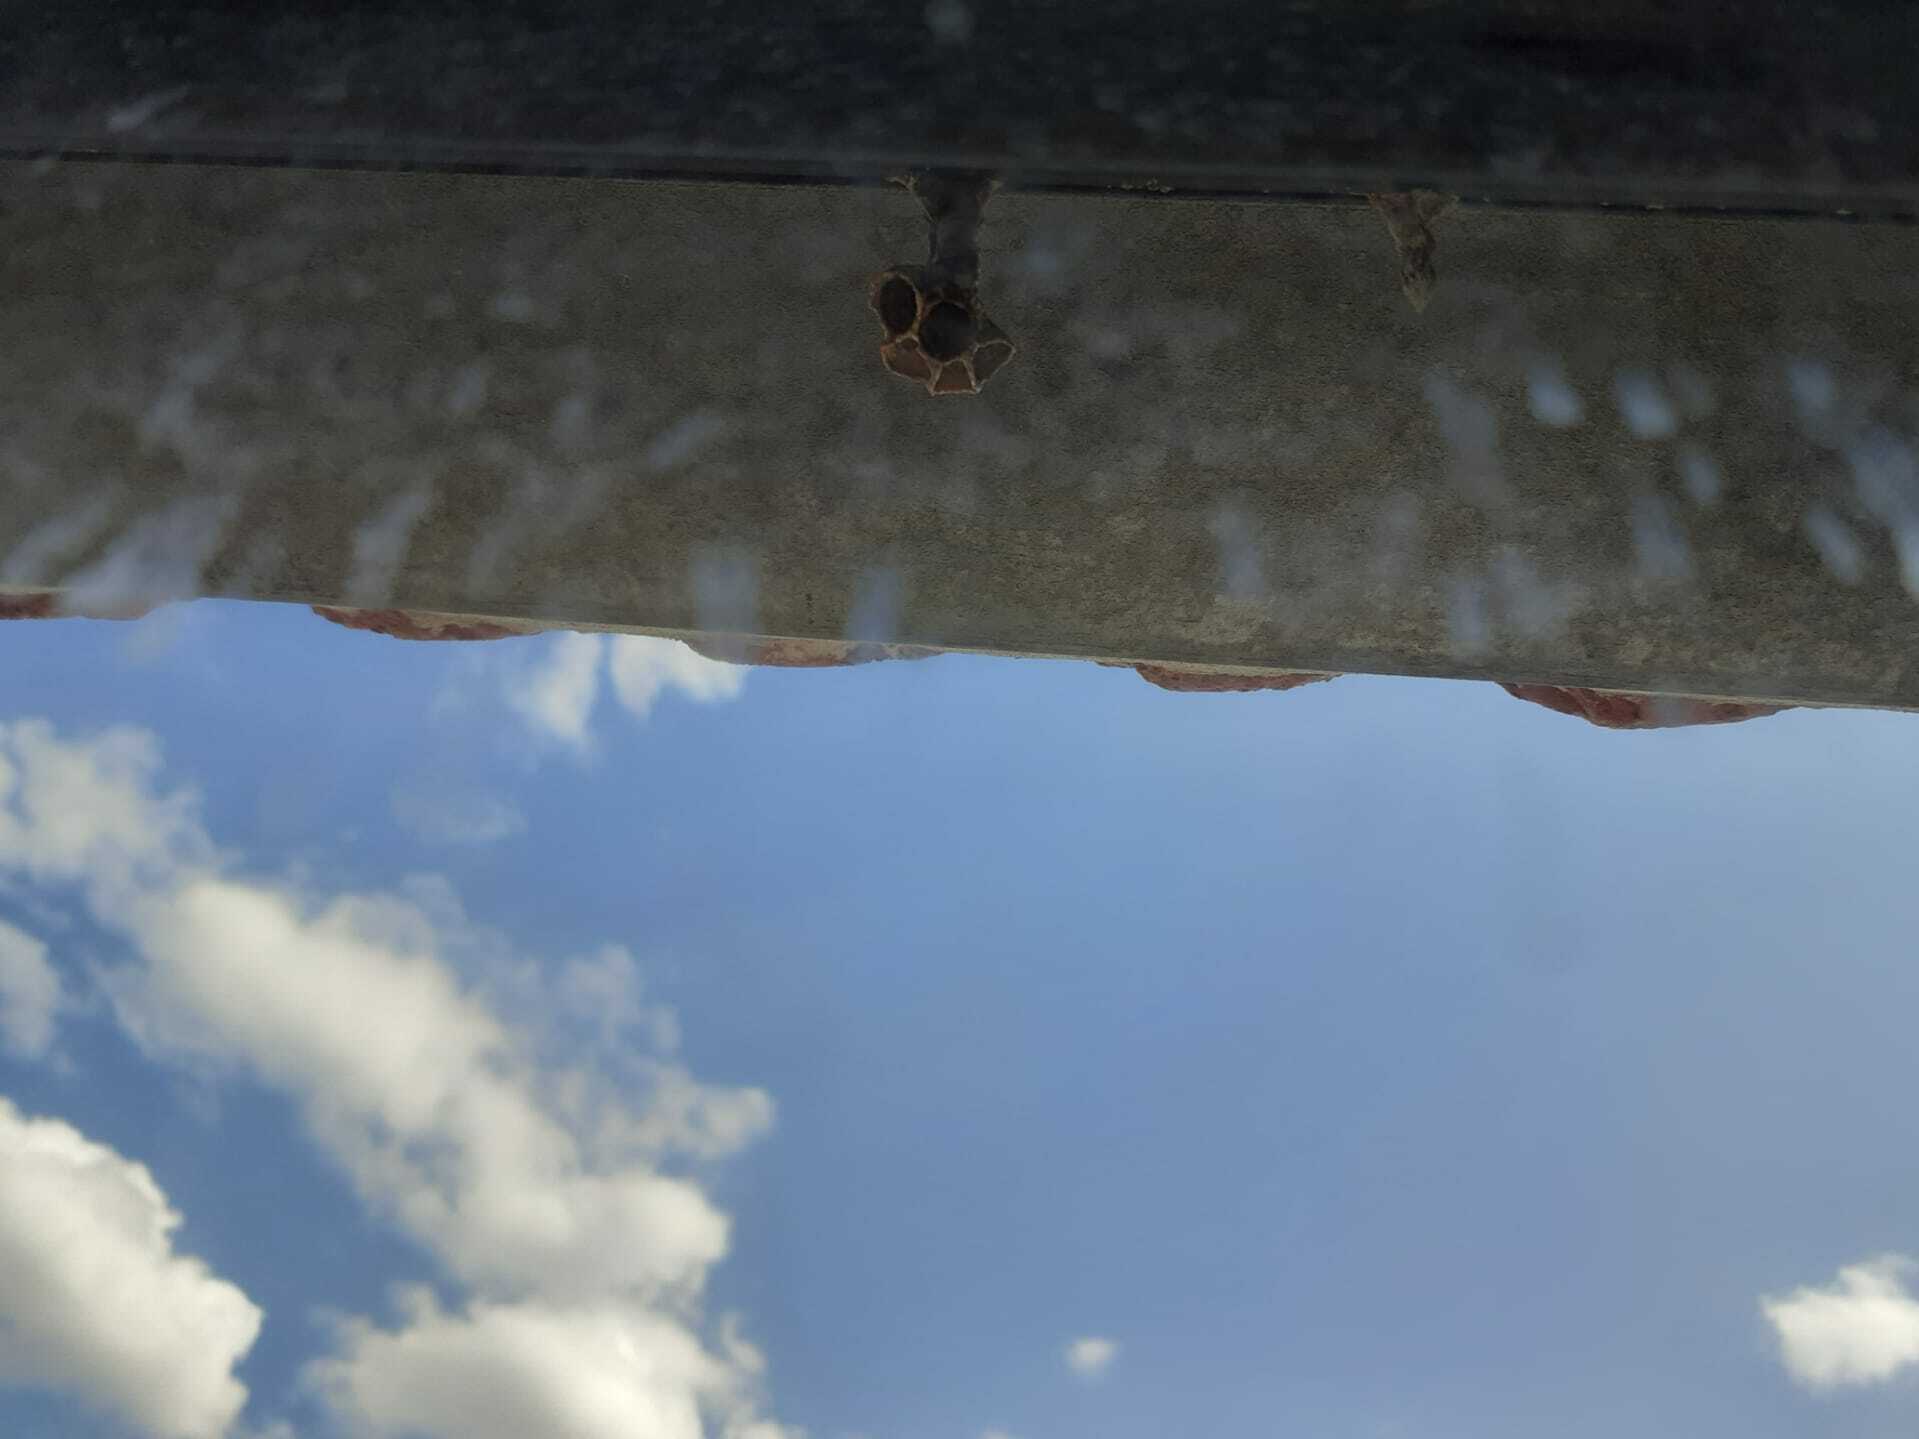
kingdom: Animalia
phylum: Arthropoda
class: Insecta
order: Hymenoptera
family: Vespidae
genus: Vespa
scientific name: Vespa velutina
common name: Asian hornet
